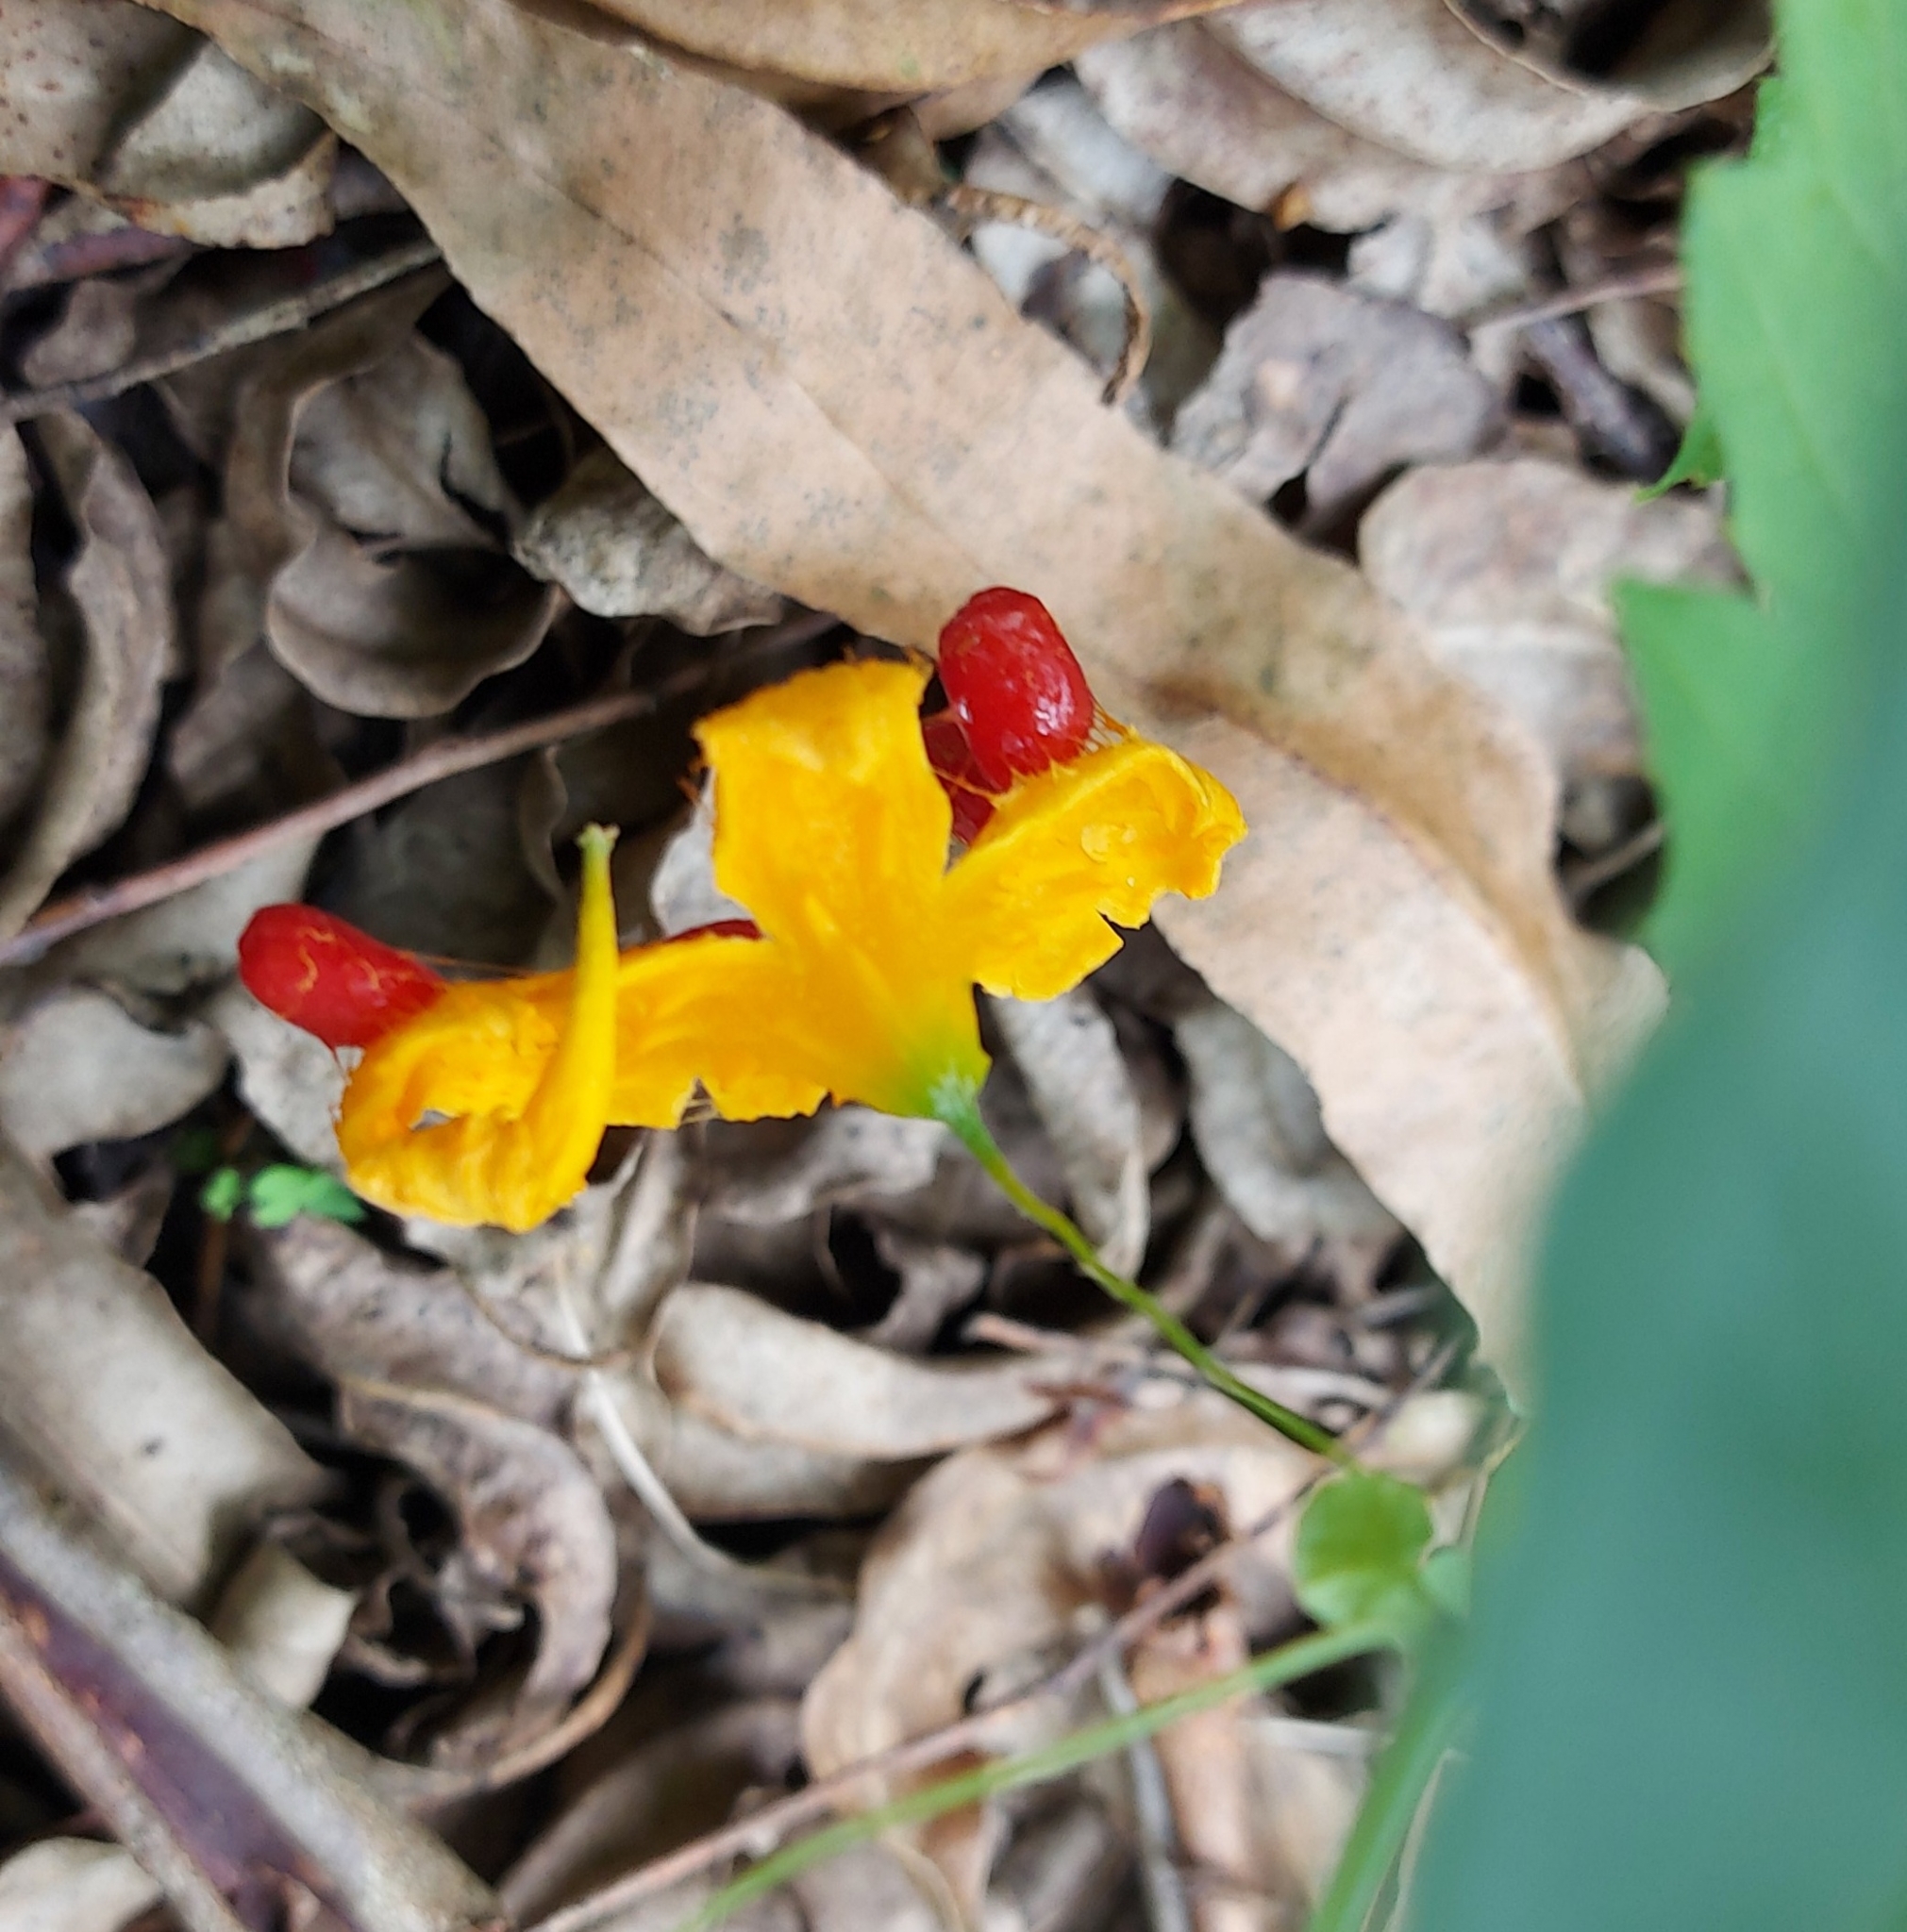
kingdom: Plantae
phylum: Tracheophyta
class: Magnoliopsida
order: Cucurbitales
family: Cucurbitaceae
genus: Momordica
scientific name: Momordica charantia
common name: Balsampear
